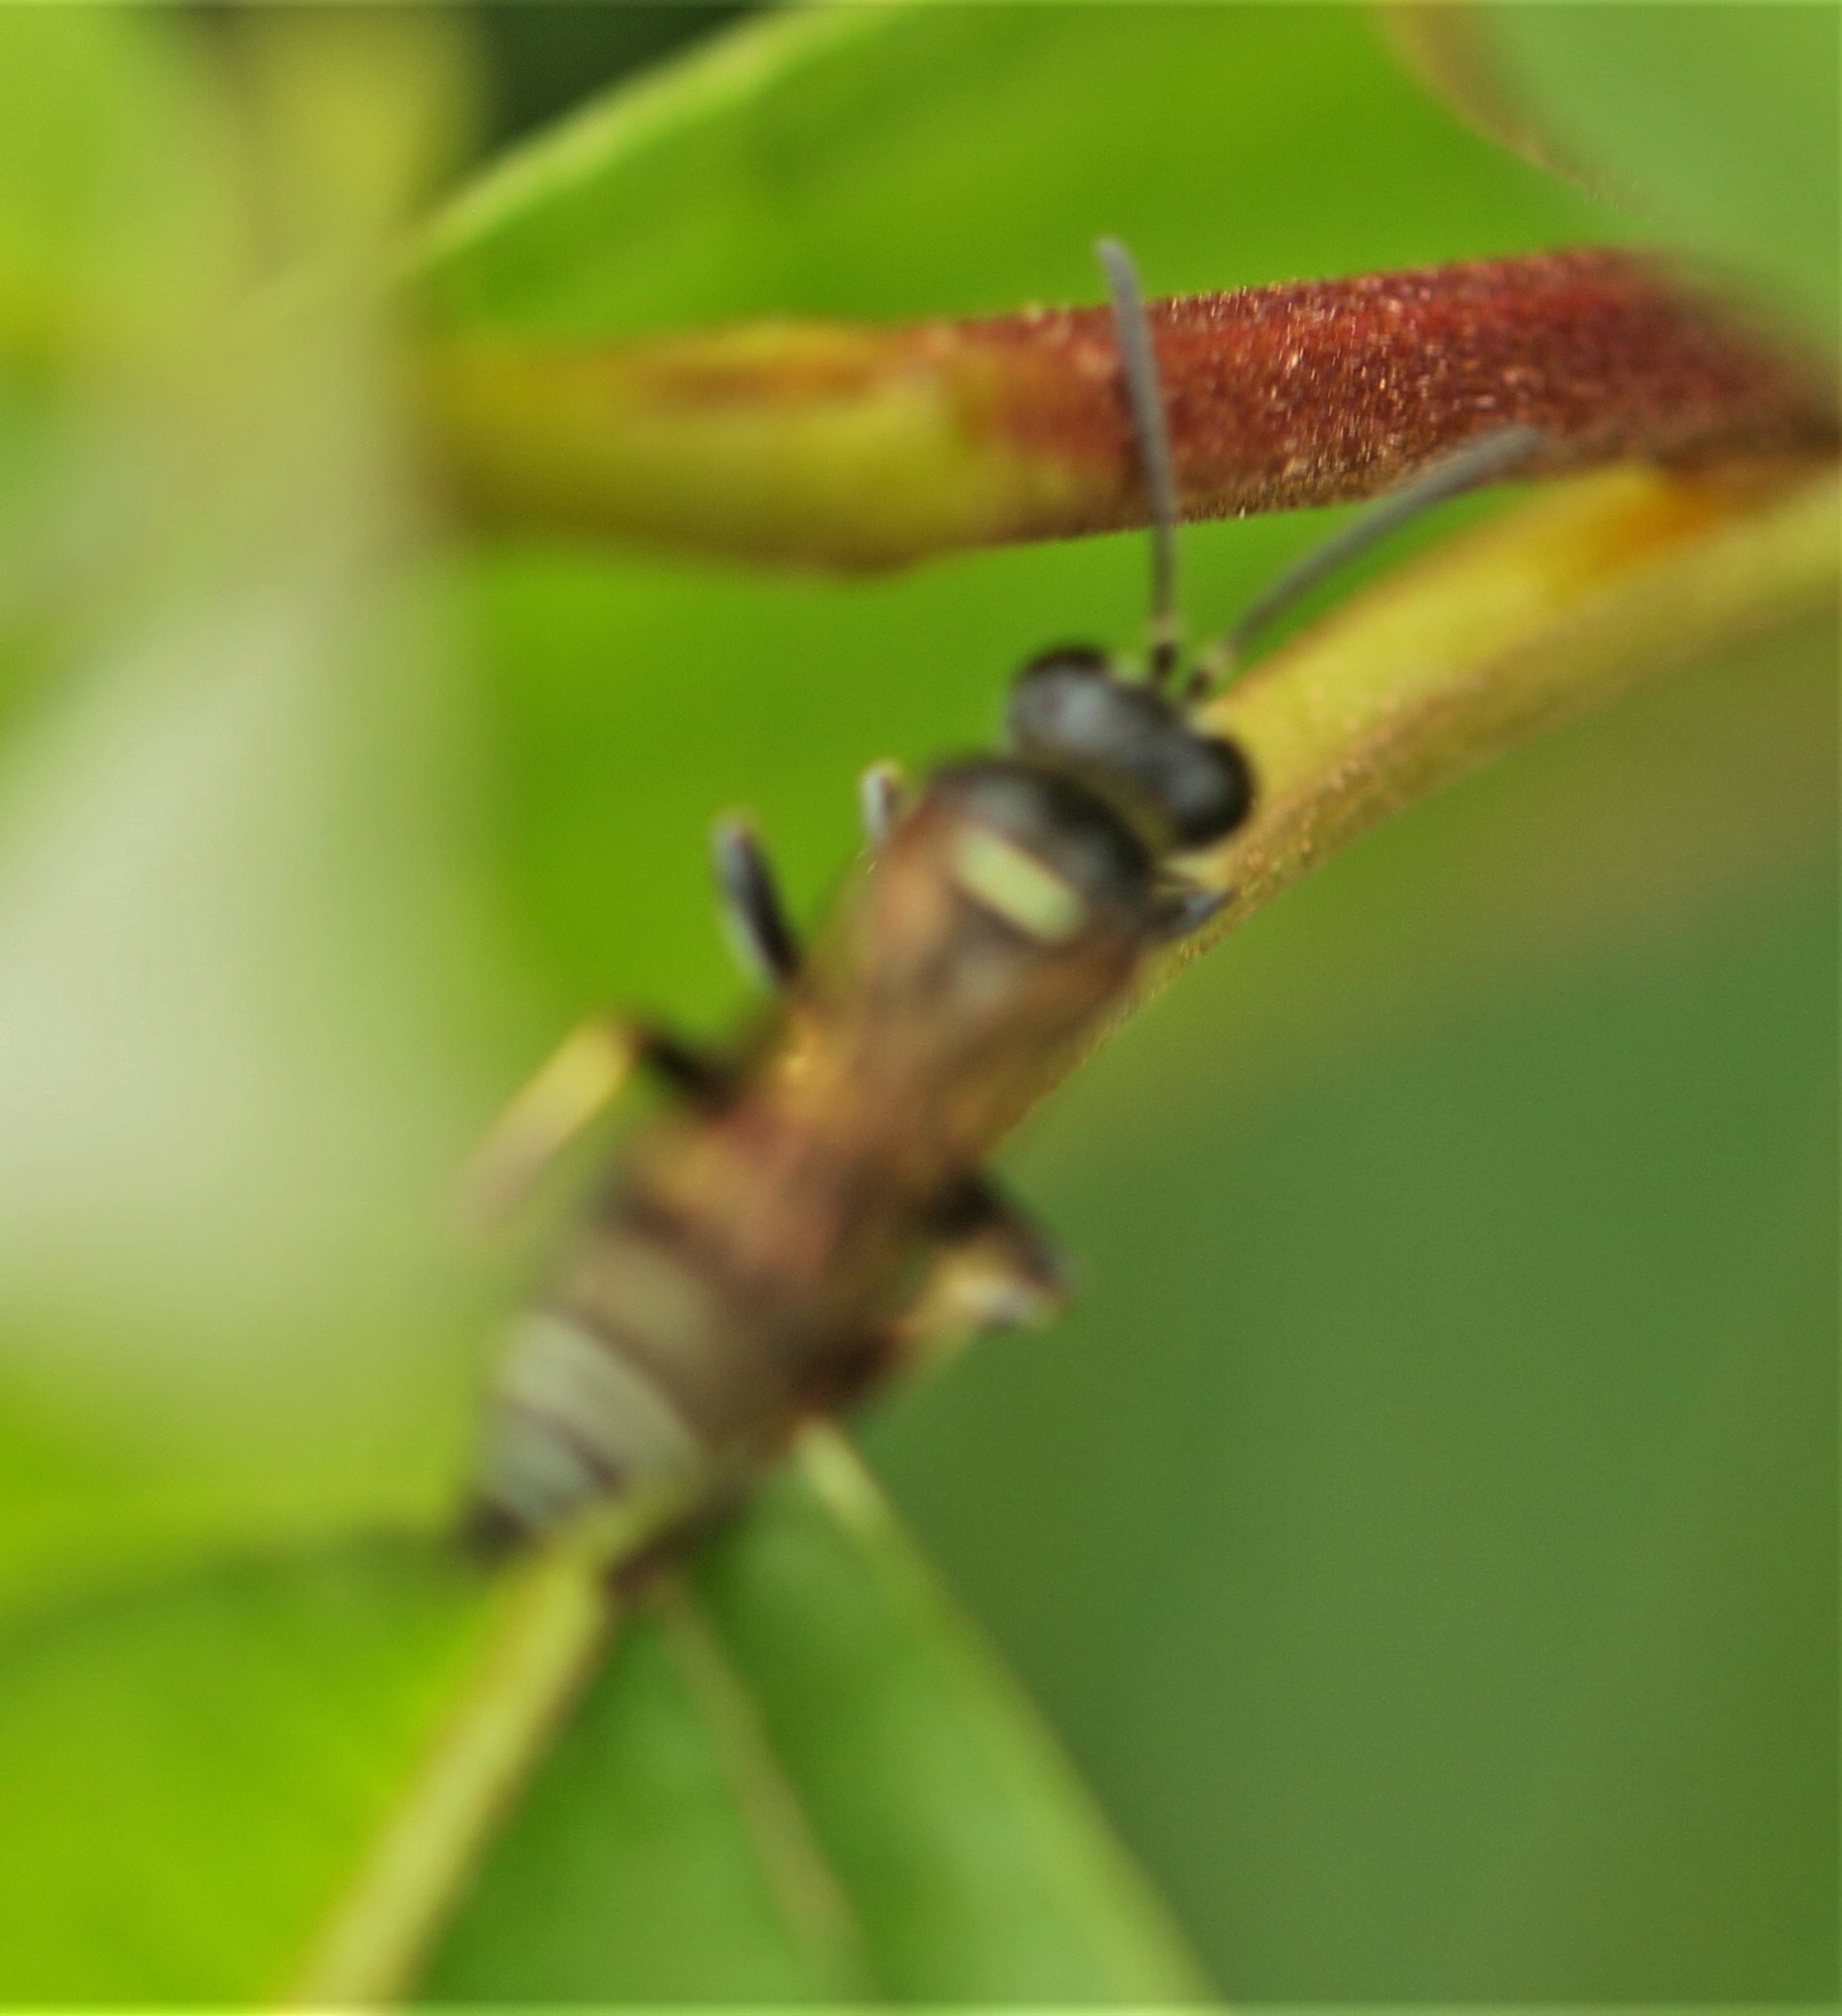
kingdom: Animalia
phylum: Arthropoda
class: Insecta
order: Hymenoptera
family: Crabronidae
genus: Gorytes
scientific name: Gorytes
